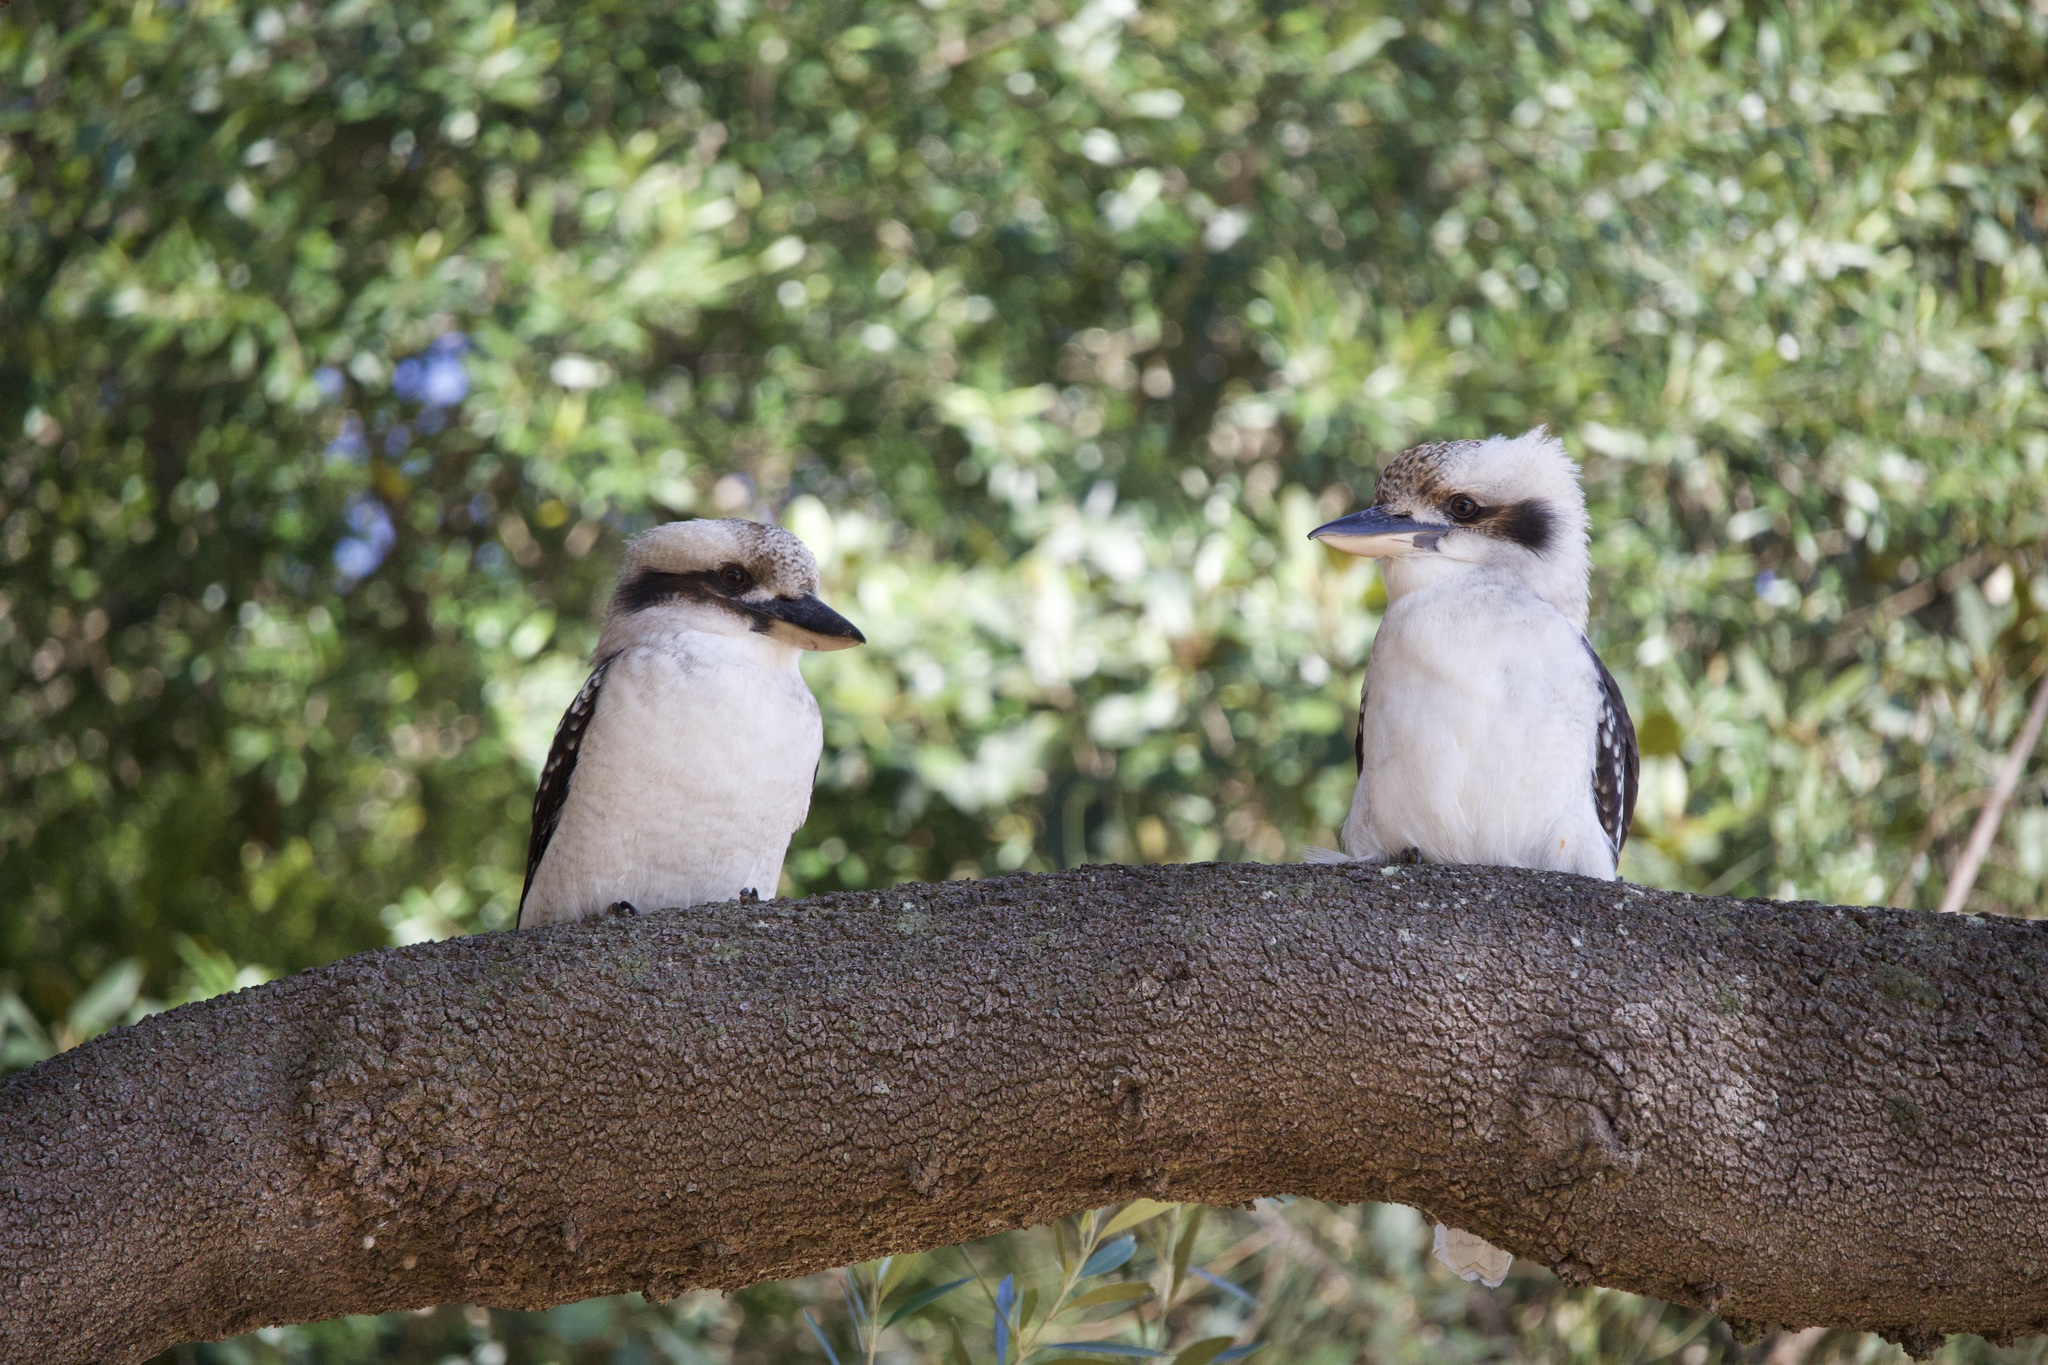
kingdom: Animalia
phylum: Chordata
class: Aves
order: Coraciiformes
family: Alcedinidae
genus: Dacelo
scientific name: Dacelo novaeguineae
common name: Laughing kookaburra
